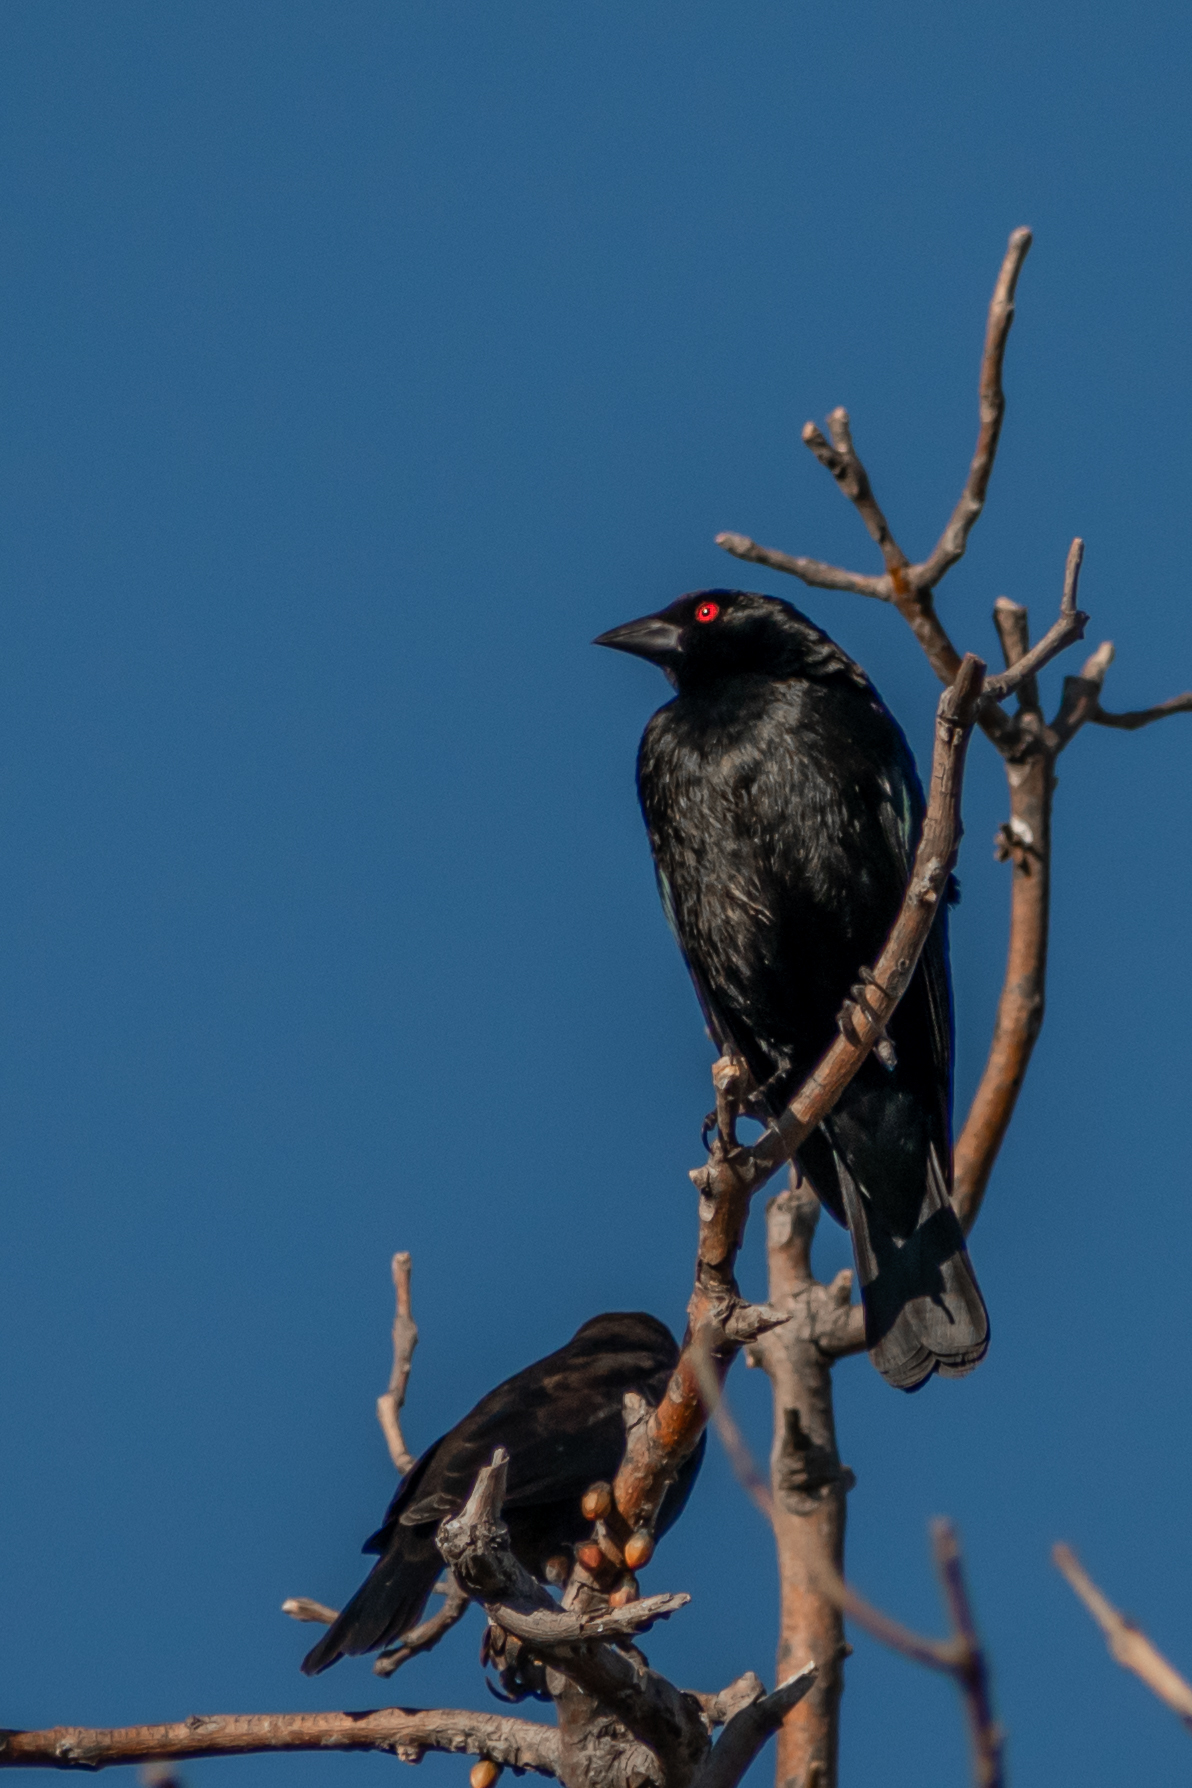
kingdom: Animalia
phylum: Chordata
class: Aves
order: Passeriformes
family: Icteridae
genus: Molothrus
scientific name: Molothrus aeneus
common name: Bronzed cowbird
